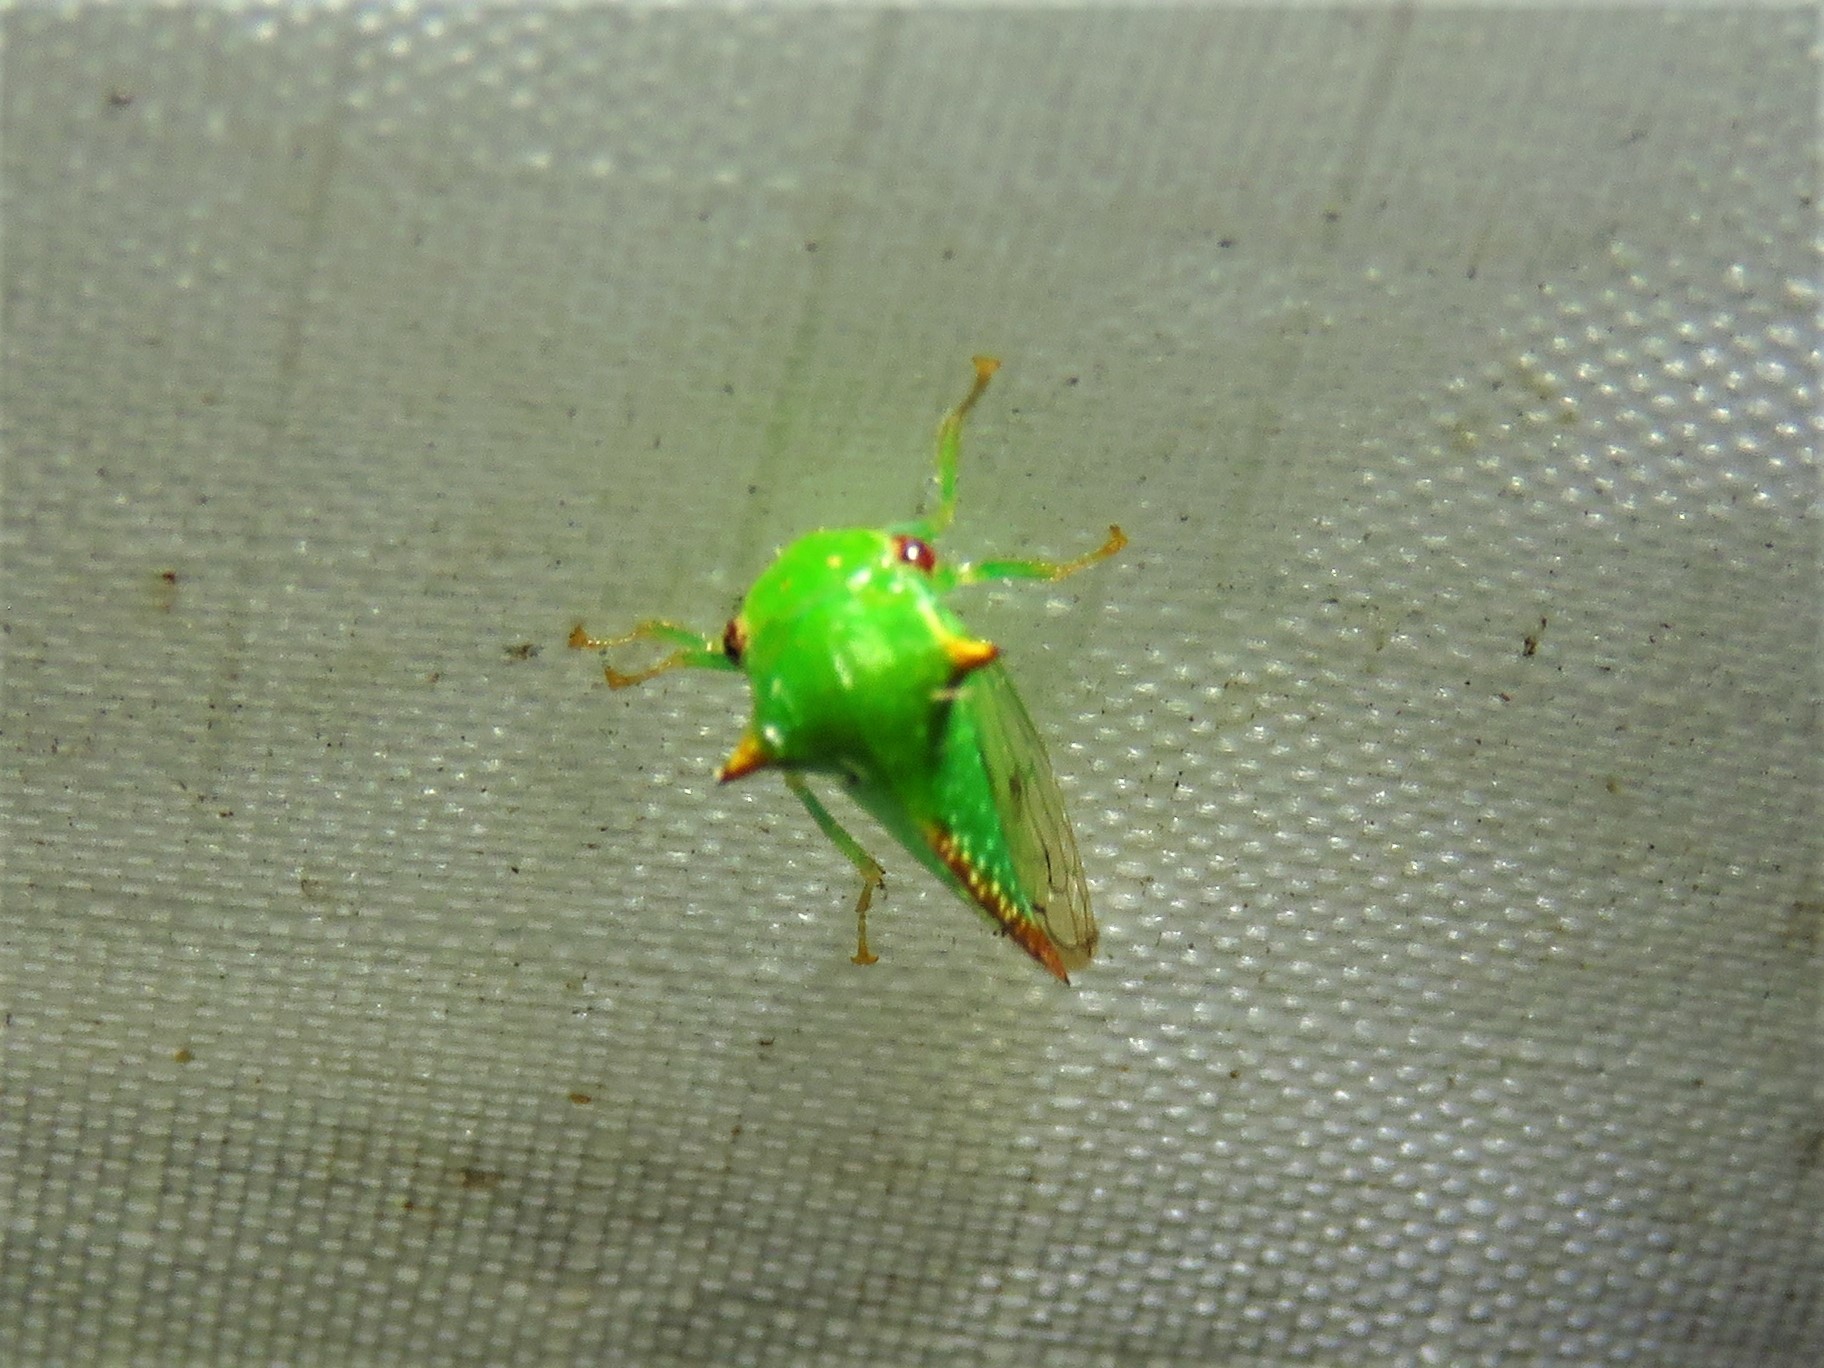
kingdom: Animalia
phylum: Arthropoda
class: Insecta
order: Hemiptera
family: Membracidae
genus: Stictocephala
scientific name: Stictocephala militaris
